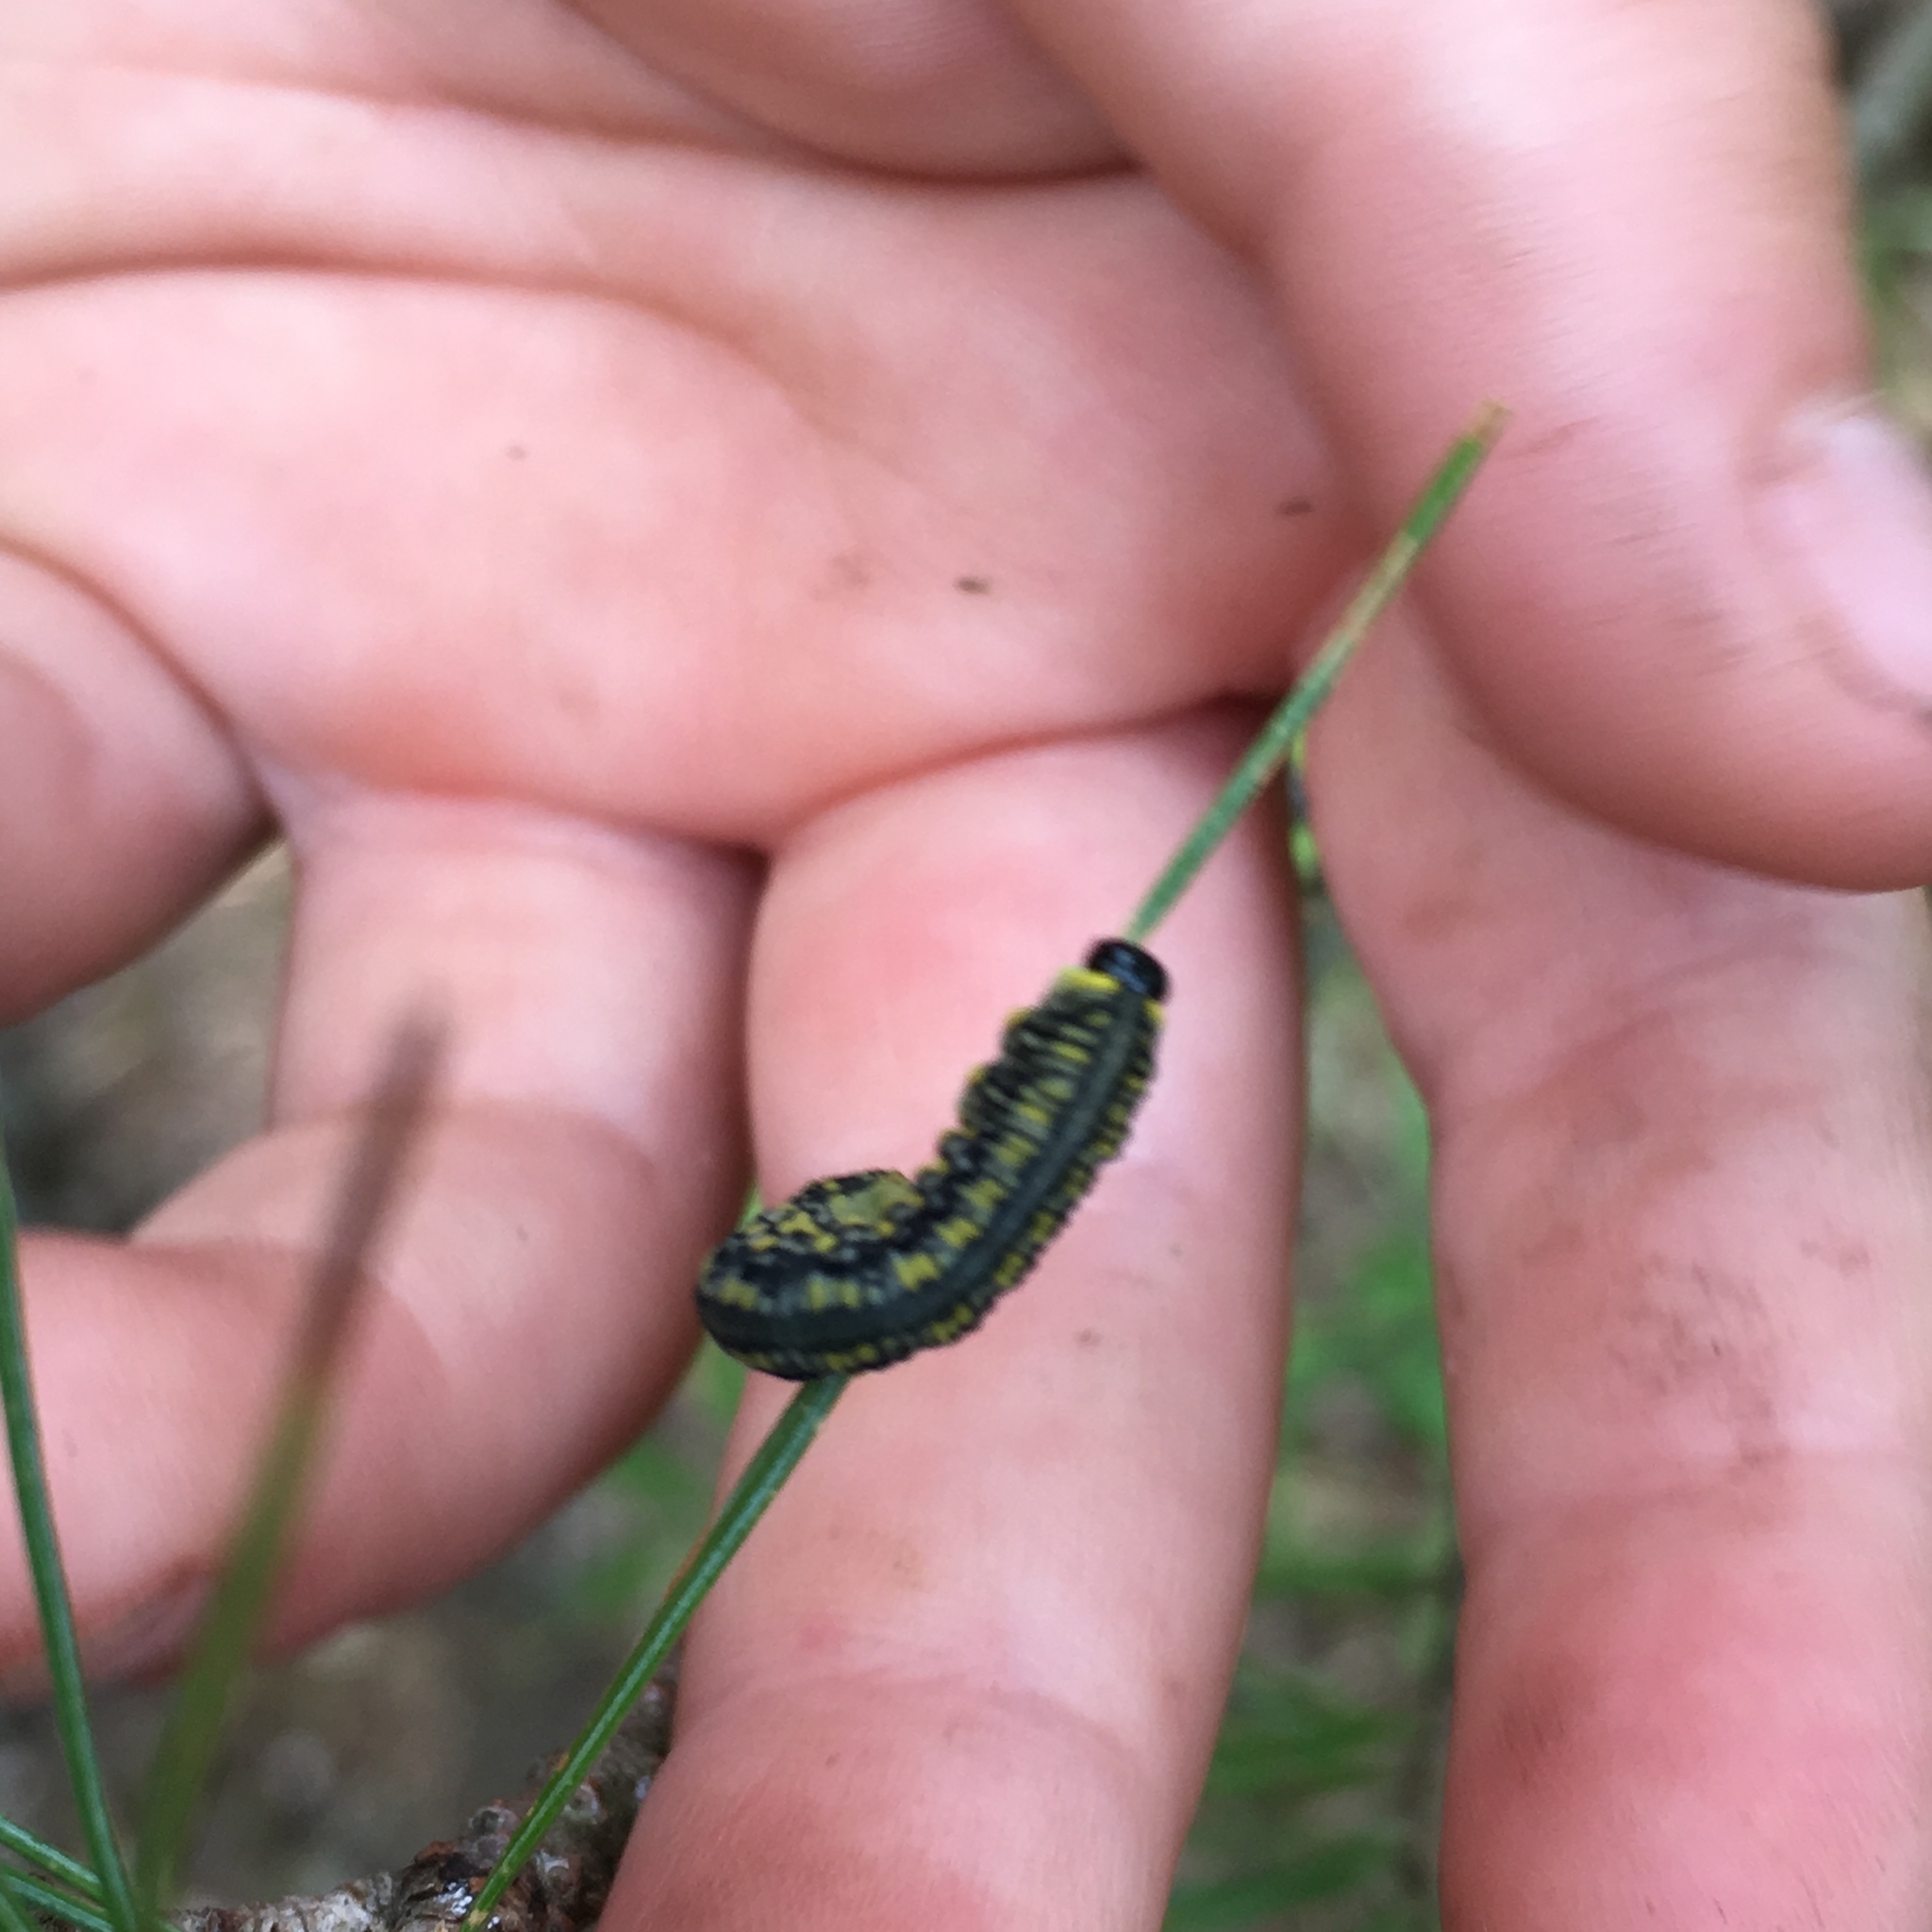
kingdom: Animalia
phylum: Arthropoda
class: Insecta
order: Hymenoptera
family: Diprionidae
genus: Diprion
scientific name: Diprion similis
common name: Pine sawfly
